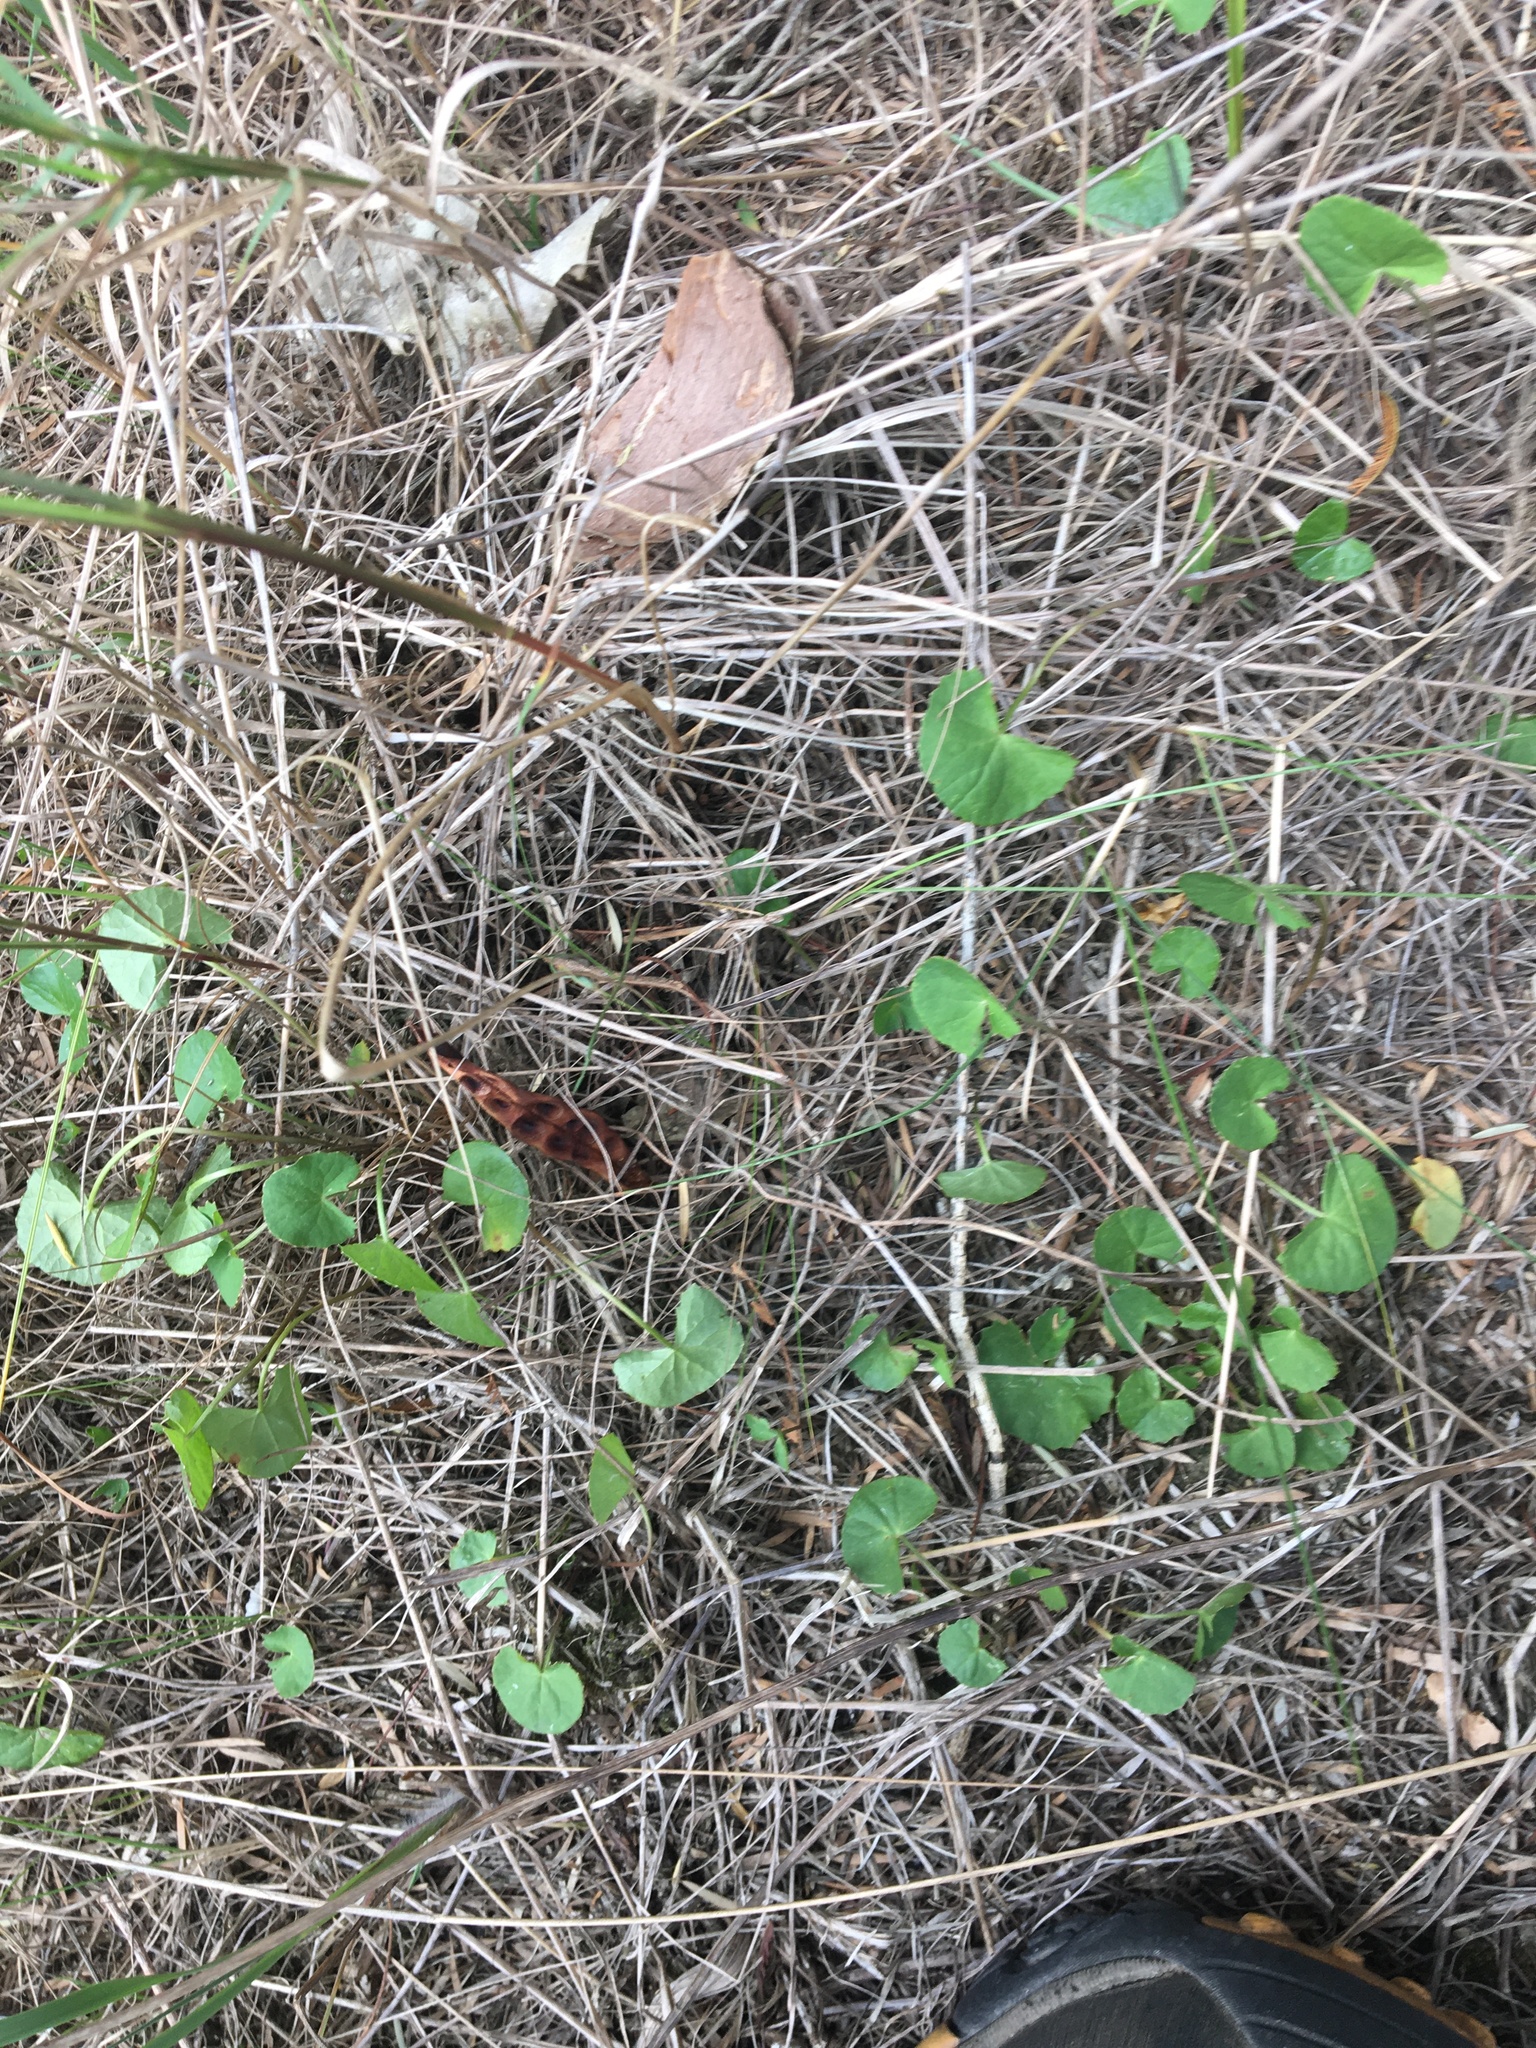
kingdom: Plantae
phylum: Tracheophyta
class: Magnoliopsida
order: Apiales
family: Apiaceae
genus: Centella
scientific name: Centella asiatica
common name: Spadeleaf
